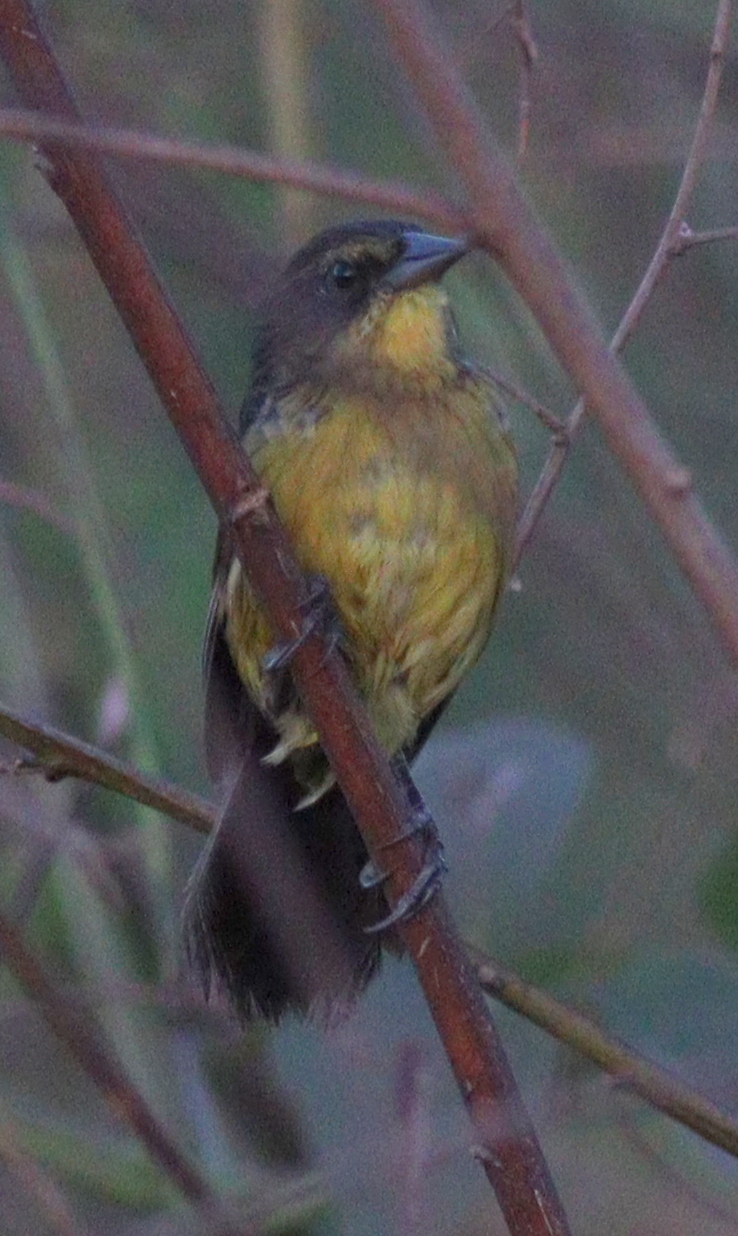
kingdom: Animalia
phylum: Chordata
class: Aves
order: Passeriformes
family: Icteridae
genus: Agelasticus
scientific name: Agelasticus cyanopus
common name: Unicolored blackbird
